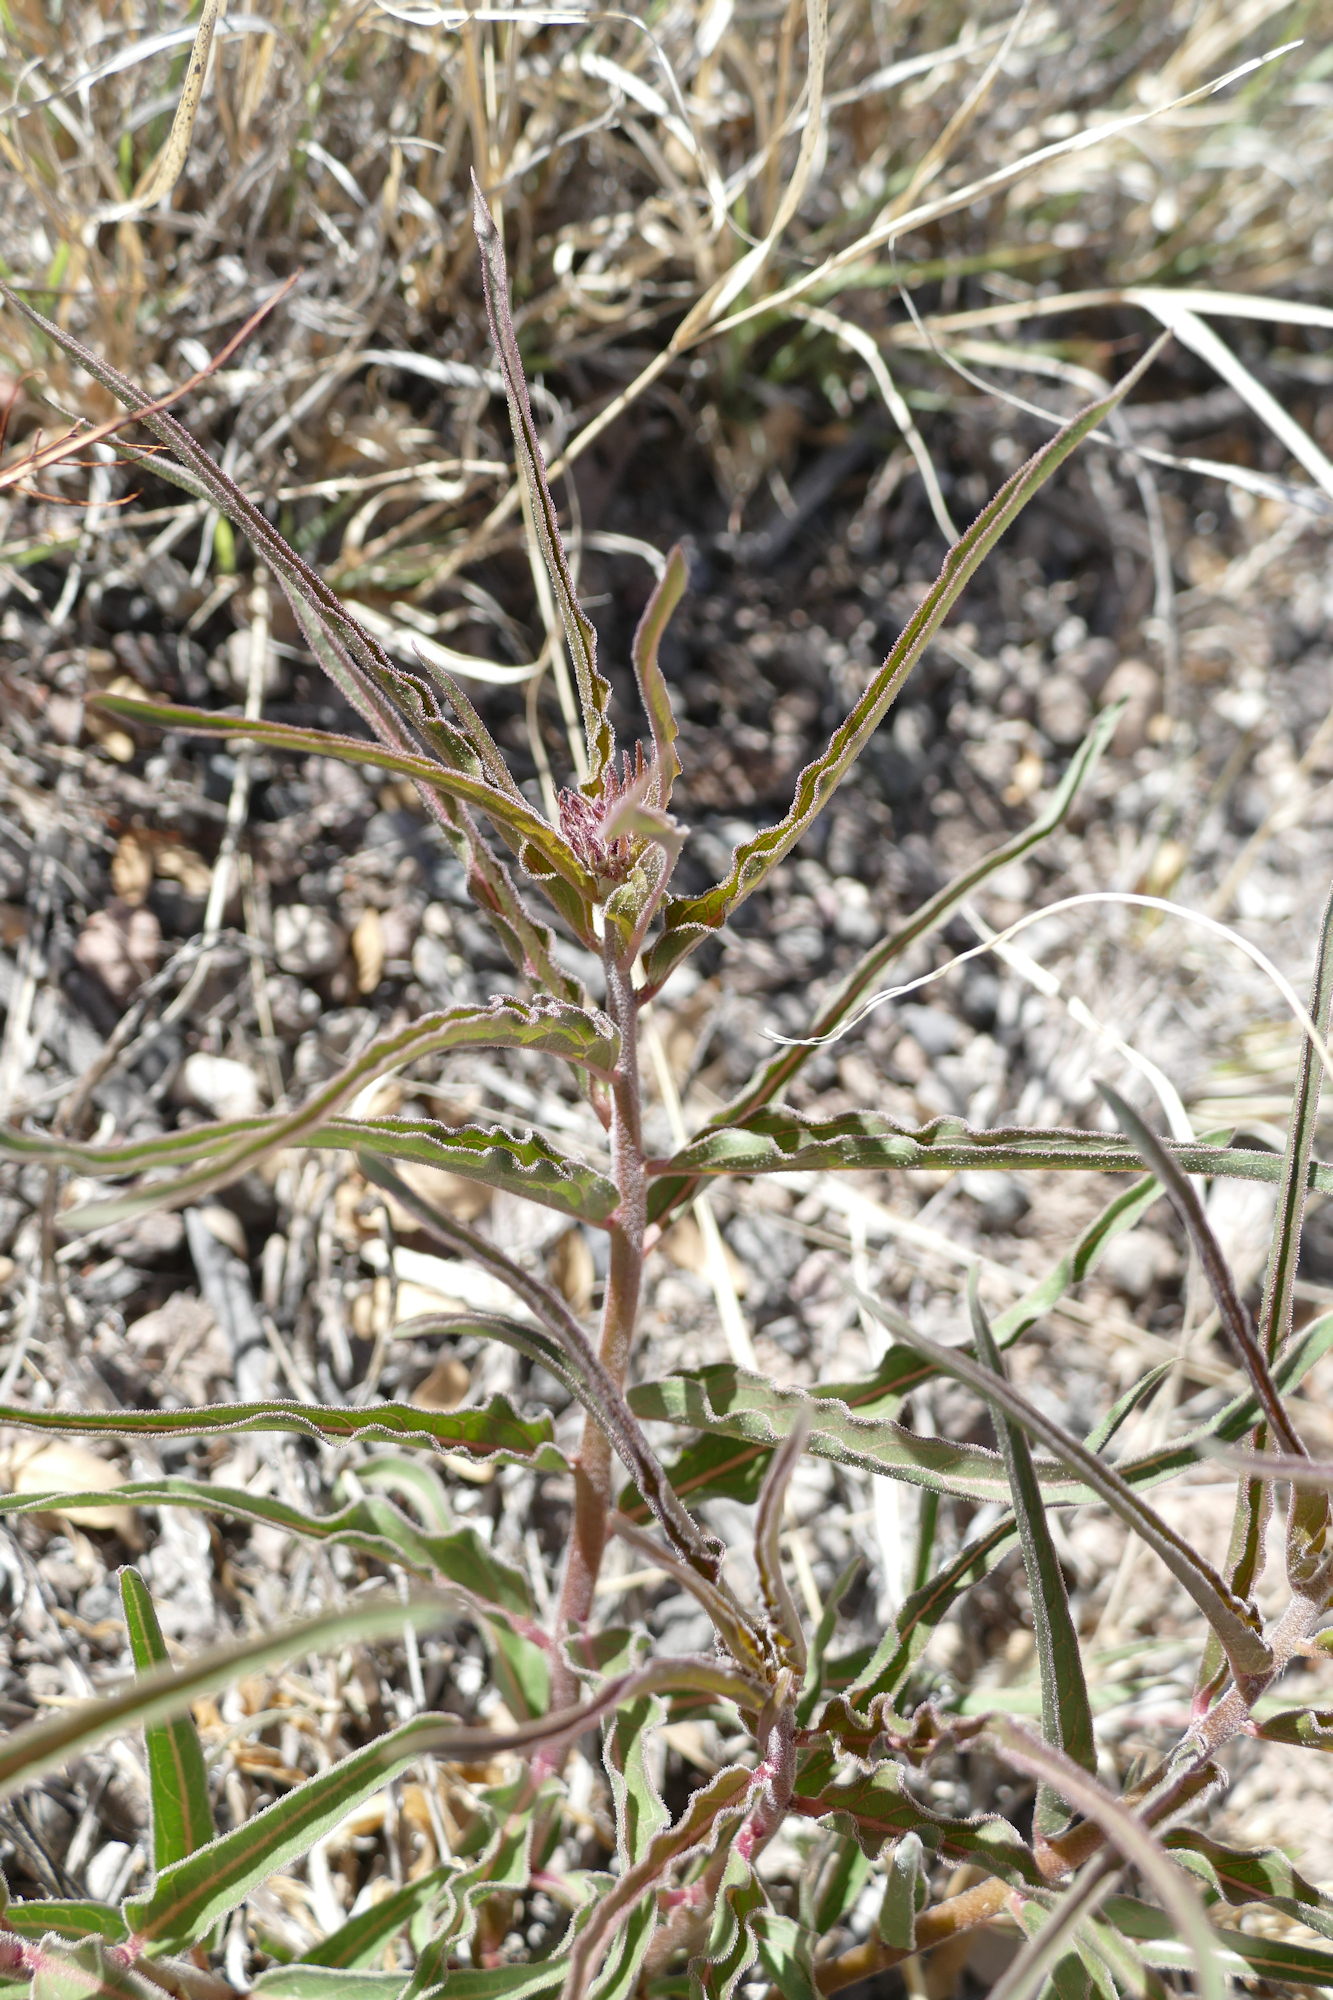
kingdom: Plantae
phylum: Tracheophyta
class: Magnoliopsida
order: Gentianales
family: Apocynaceae
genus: Asclepias
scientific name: Asclepias asperula
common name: Antelope horns
